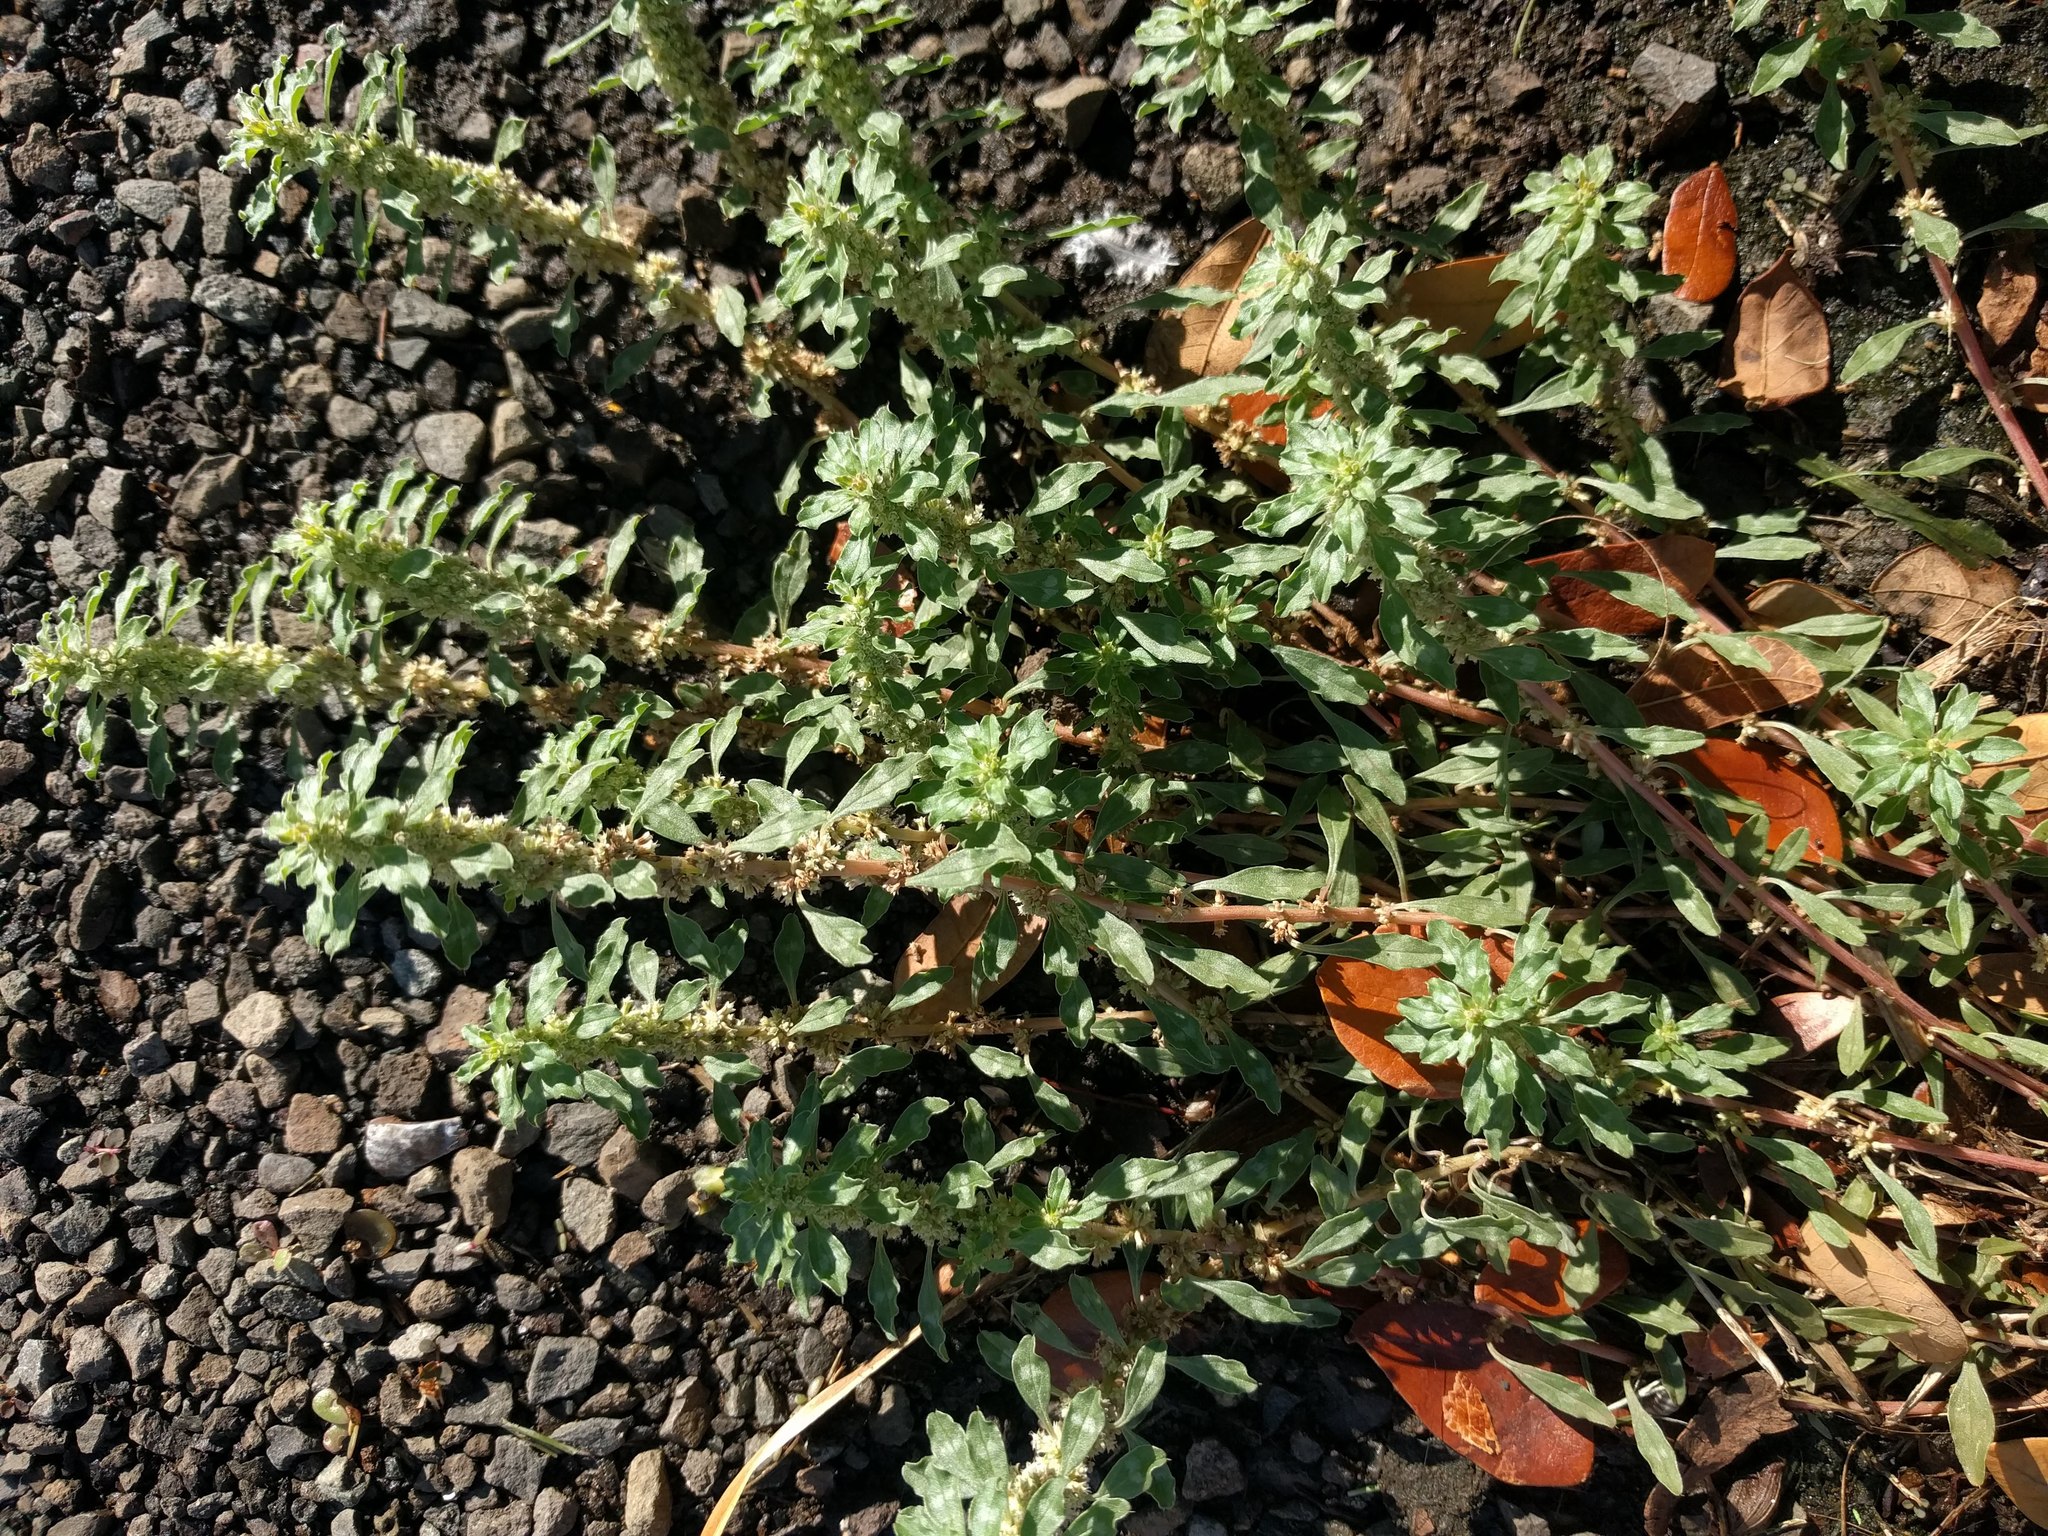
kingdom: Plantae
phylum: Tracheophyta
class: Magnoliopsida
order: Caryophyllales
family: Amaranthaceae
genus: Amaranthus
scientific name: Amaranthus polygonoides
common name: Tropical amaranth
